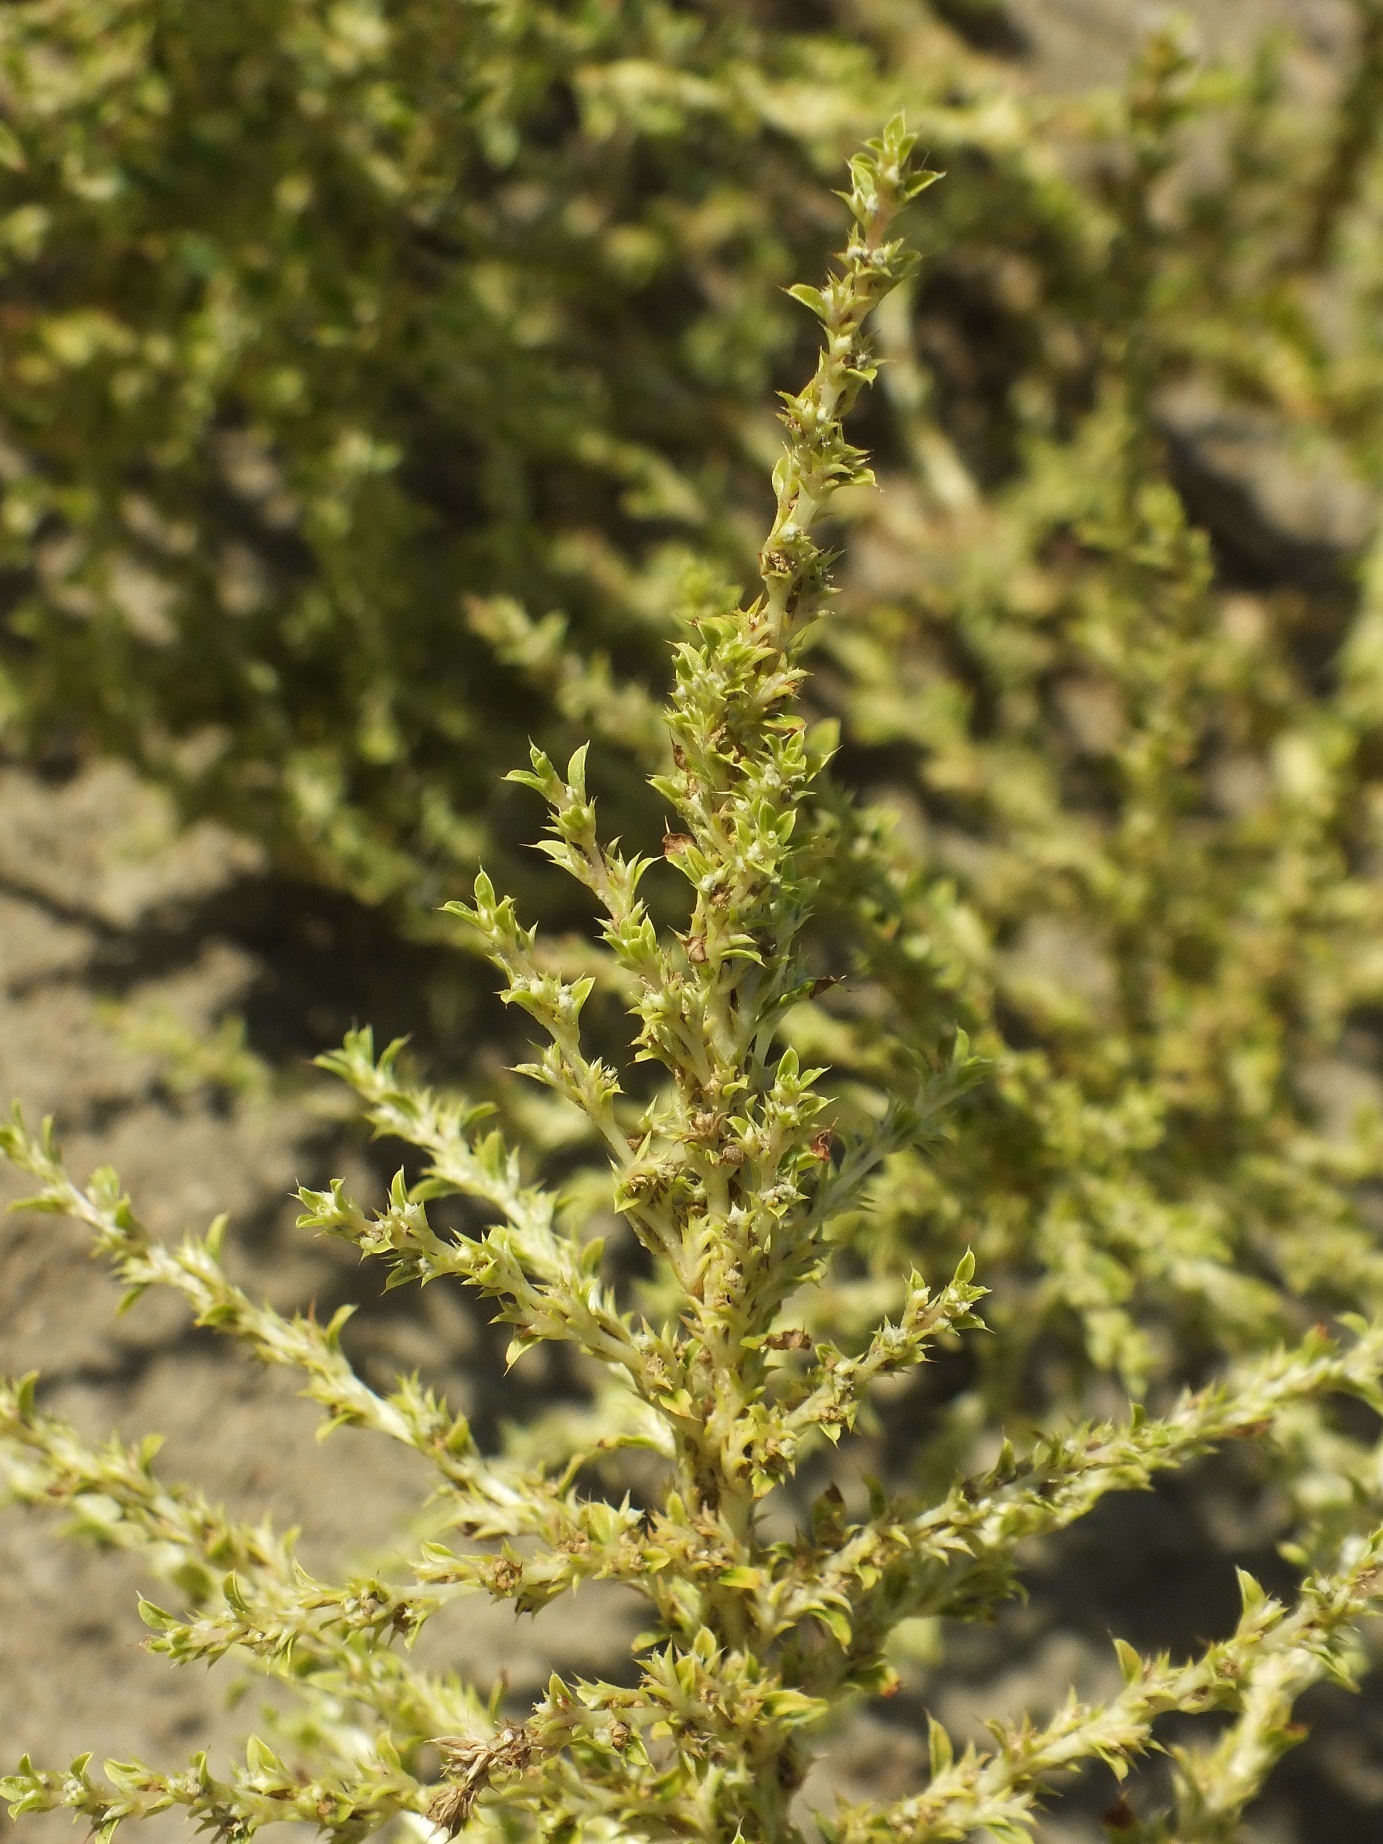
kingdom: Plantae
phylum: Tracheophyta
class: Magnoliopsida
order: Caryophyllales
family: Amaranthaceae
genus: Amaranthus
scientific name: Amaranthus albus
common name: White pigweed
